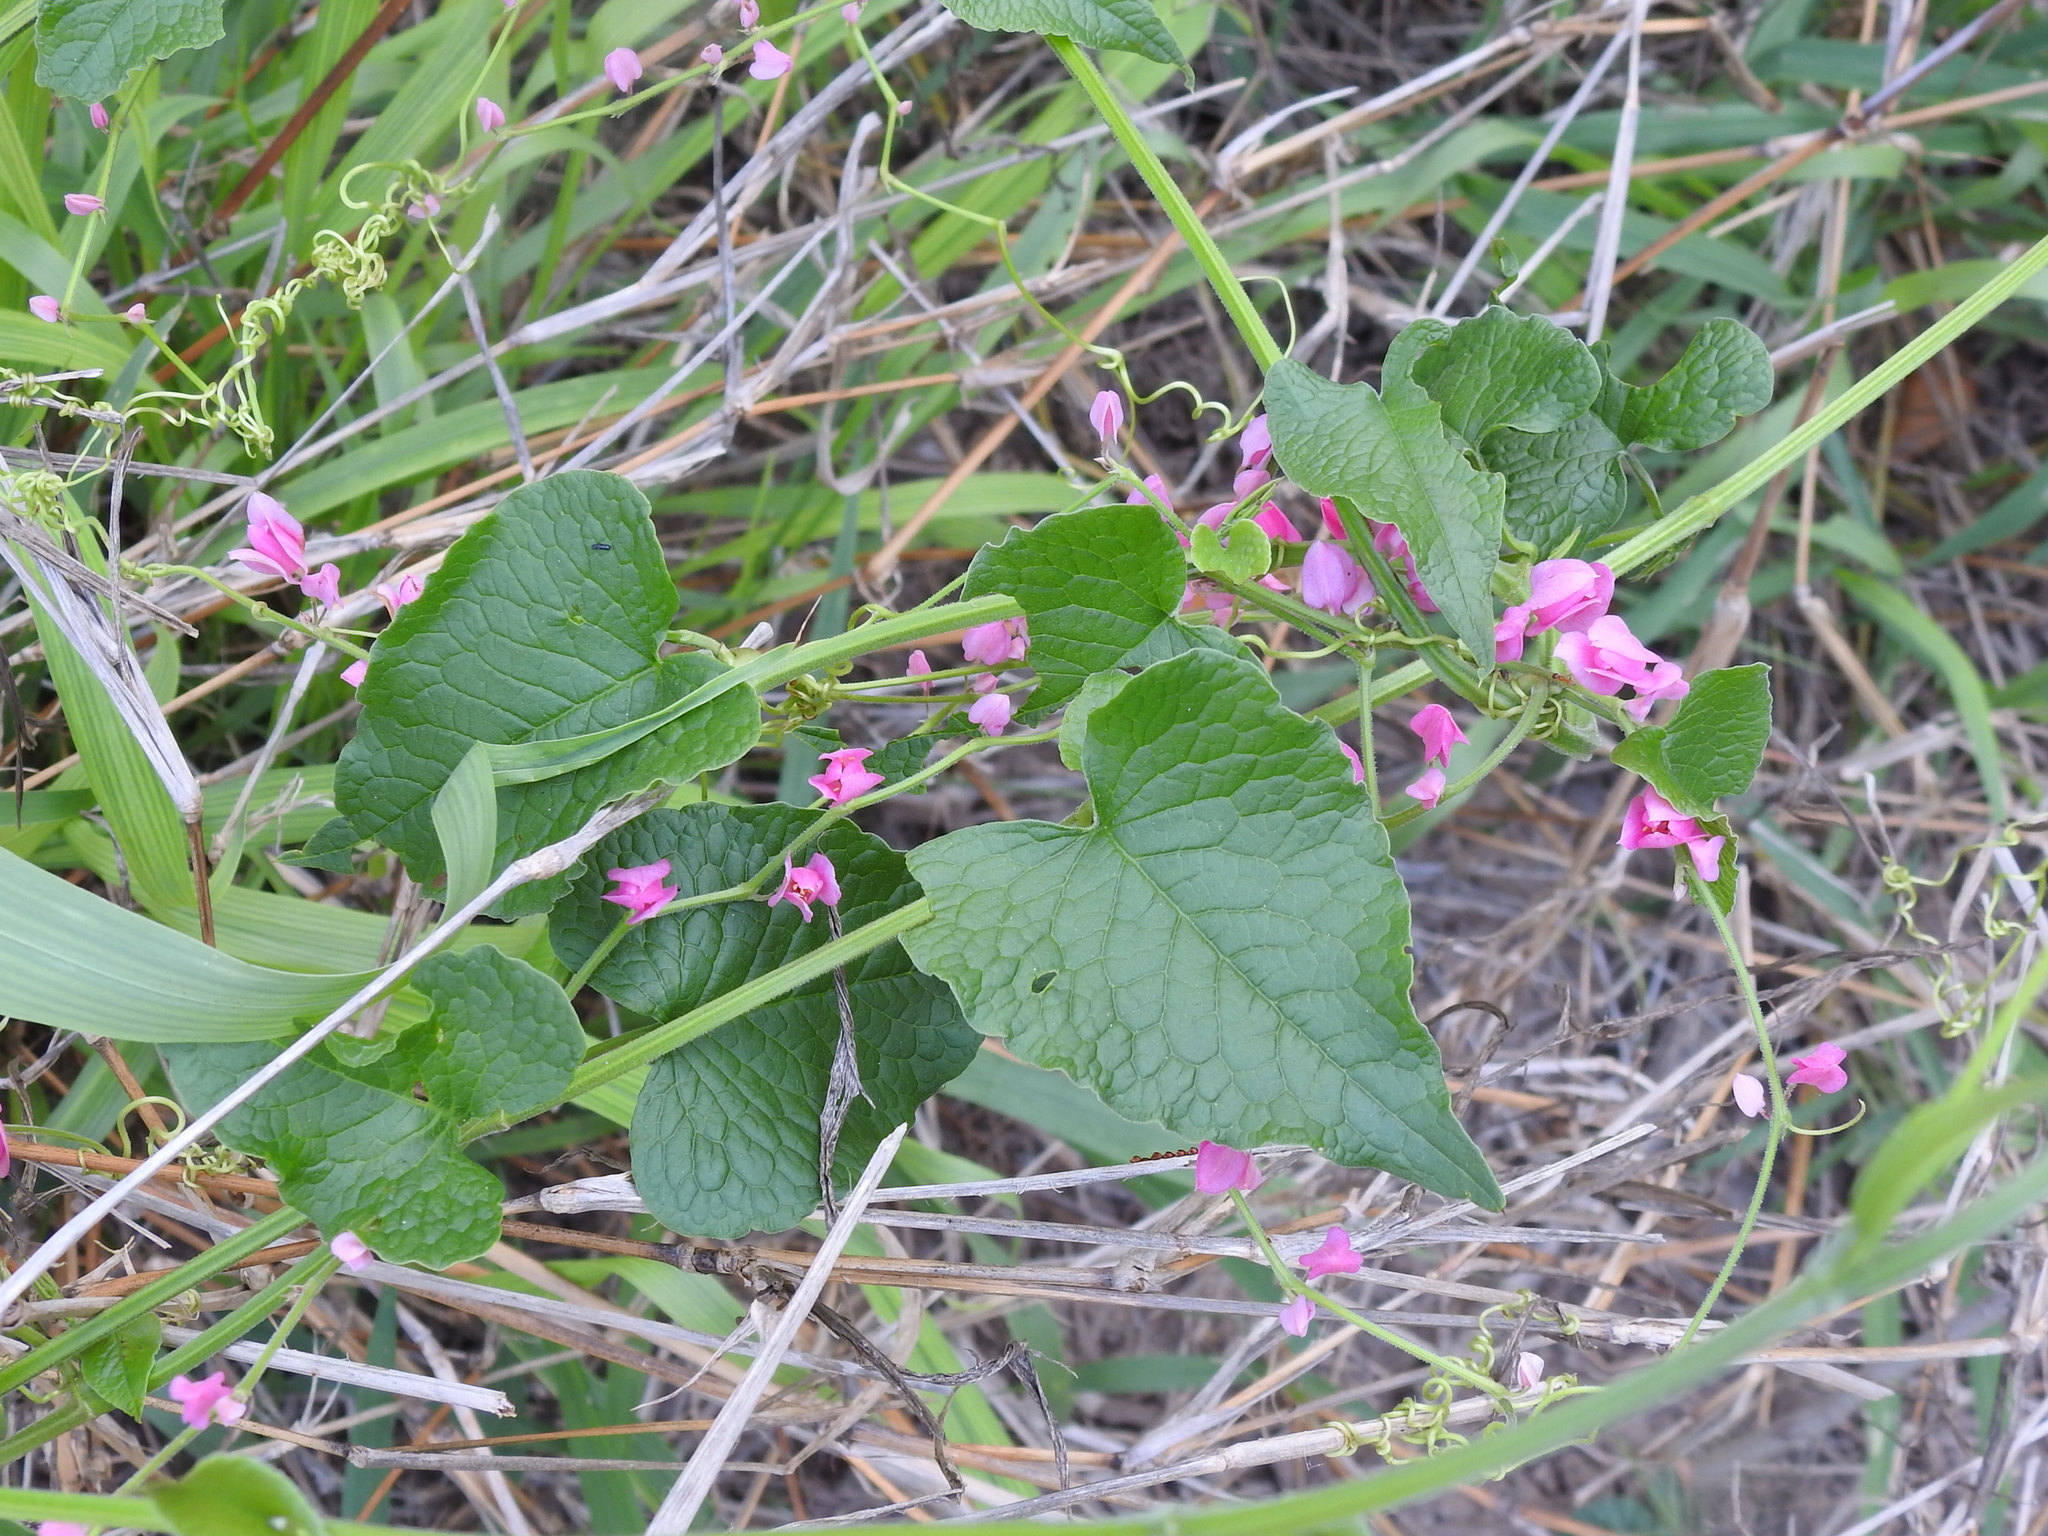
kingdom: Plantae
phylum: Tracheophyta
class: Magnoliopsida
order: Caryophyllales
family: Polygonaceae
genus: Antigonon
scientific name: Antigonon leptopus
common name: Coral vine
